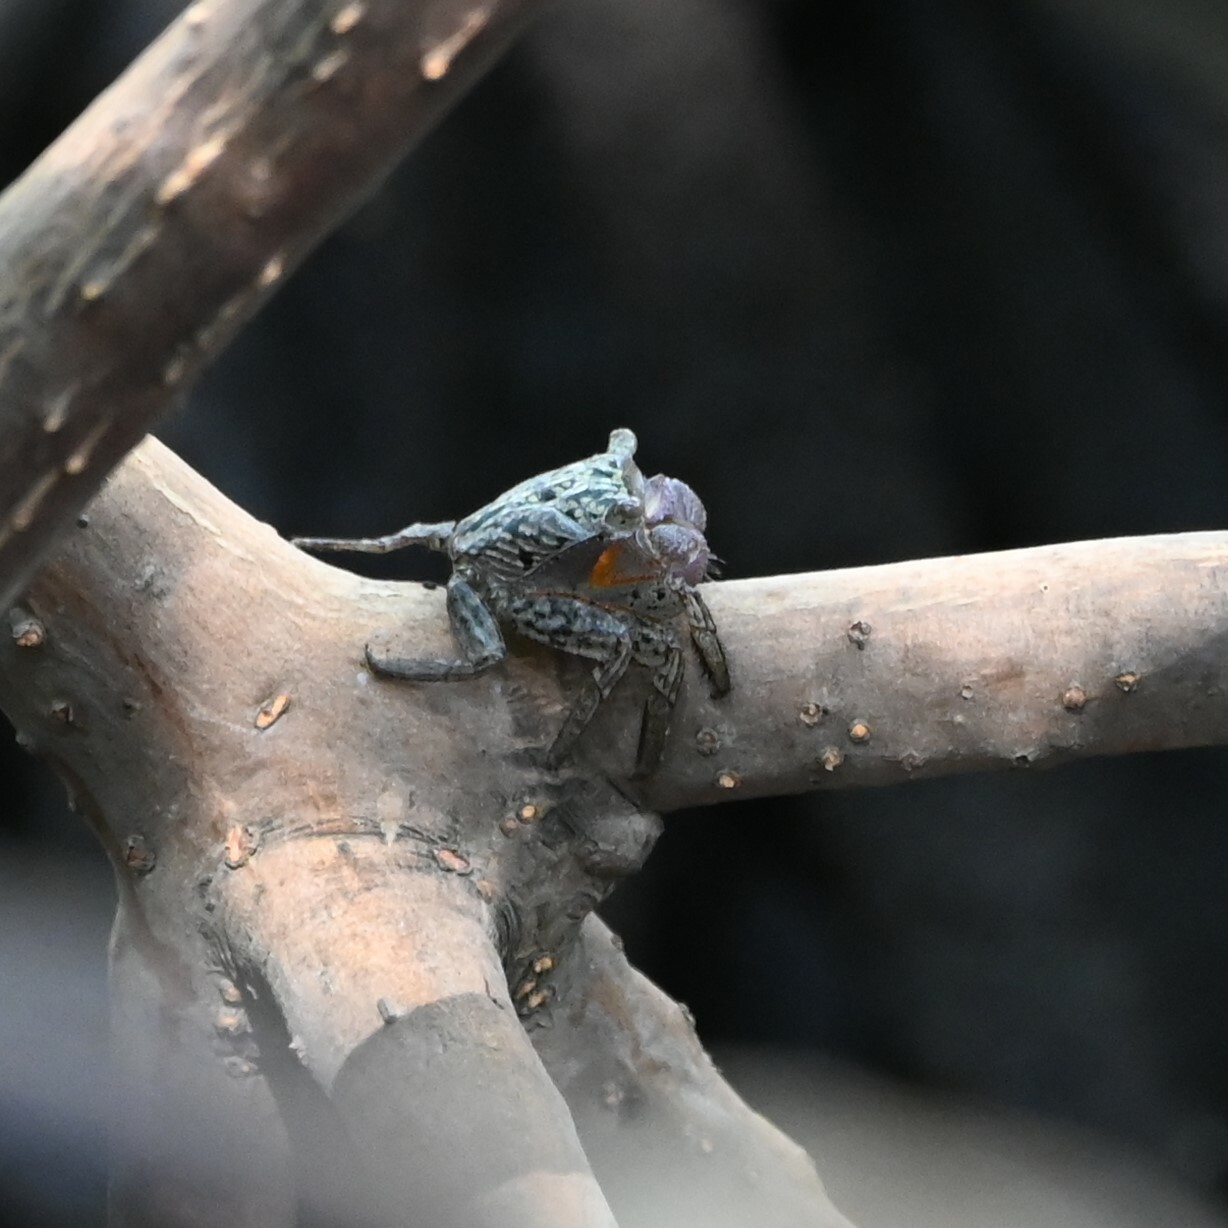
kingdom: Animalia
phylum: Arthropoda
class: Malacostraca
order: Decapoda
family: Sesarmidae
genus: Aratus
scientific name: Aratus pisonii
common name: Mangrove crab
